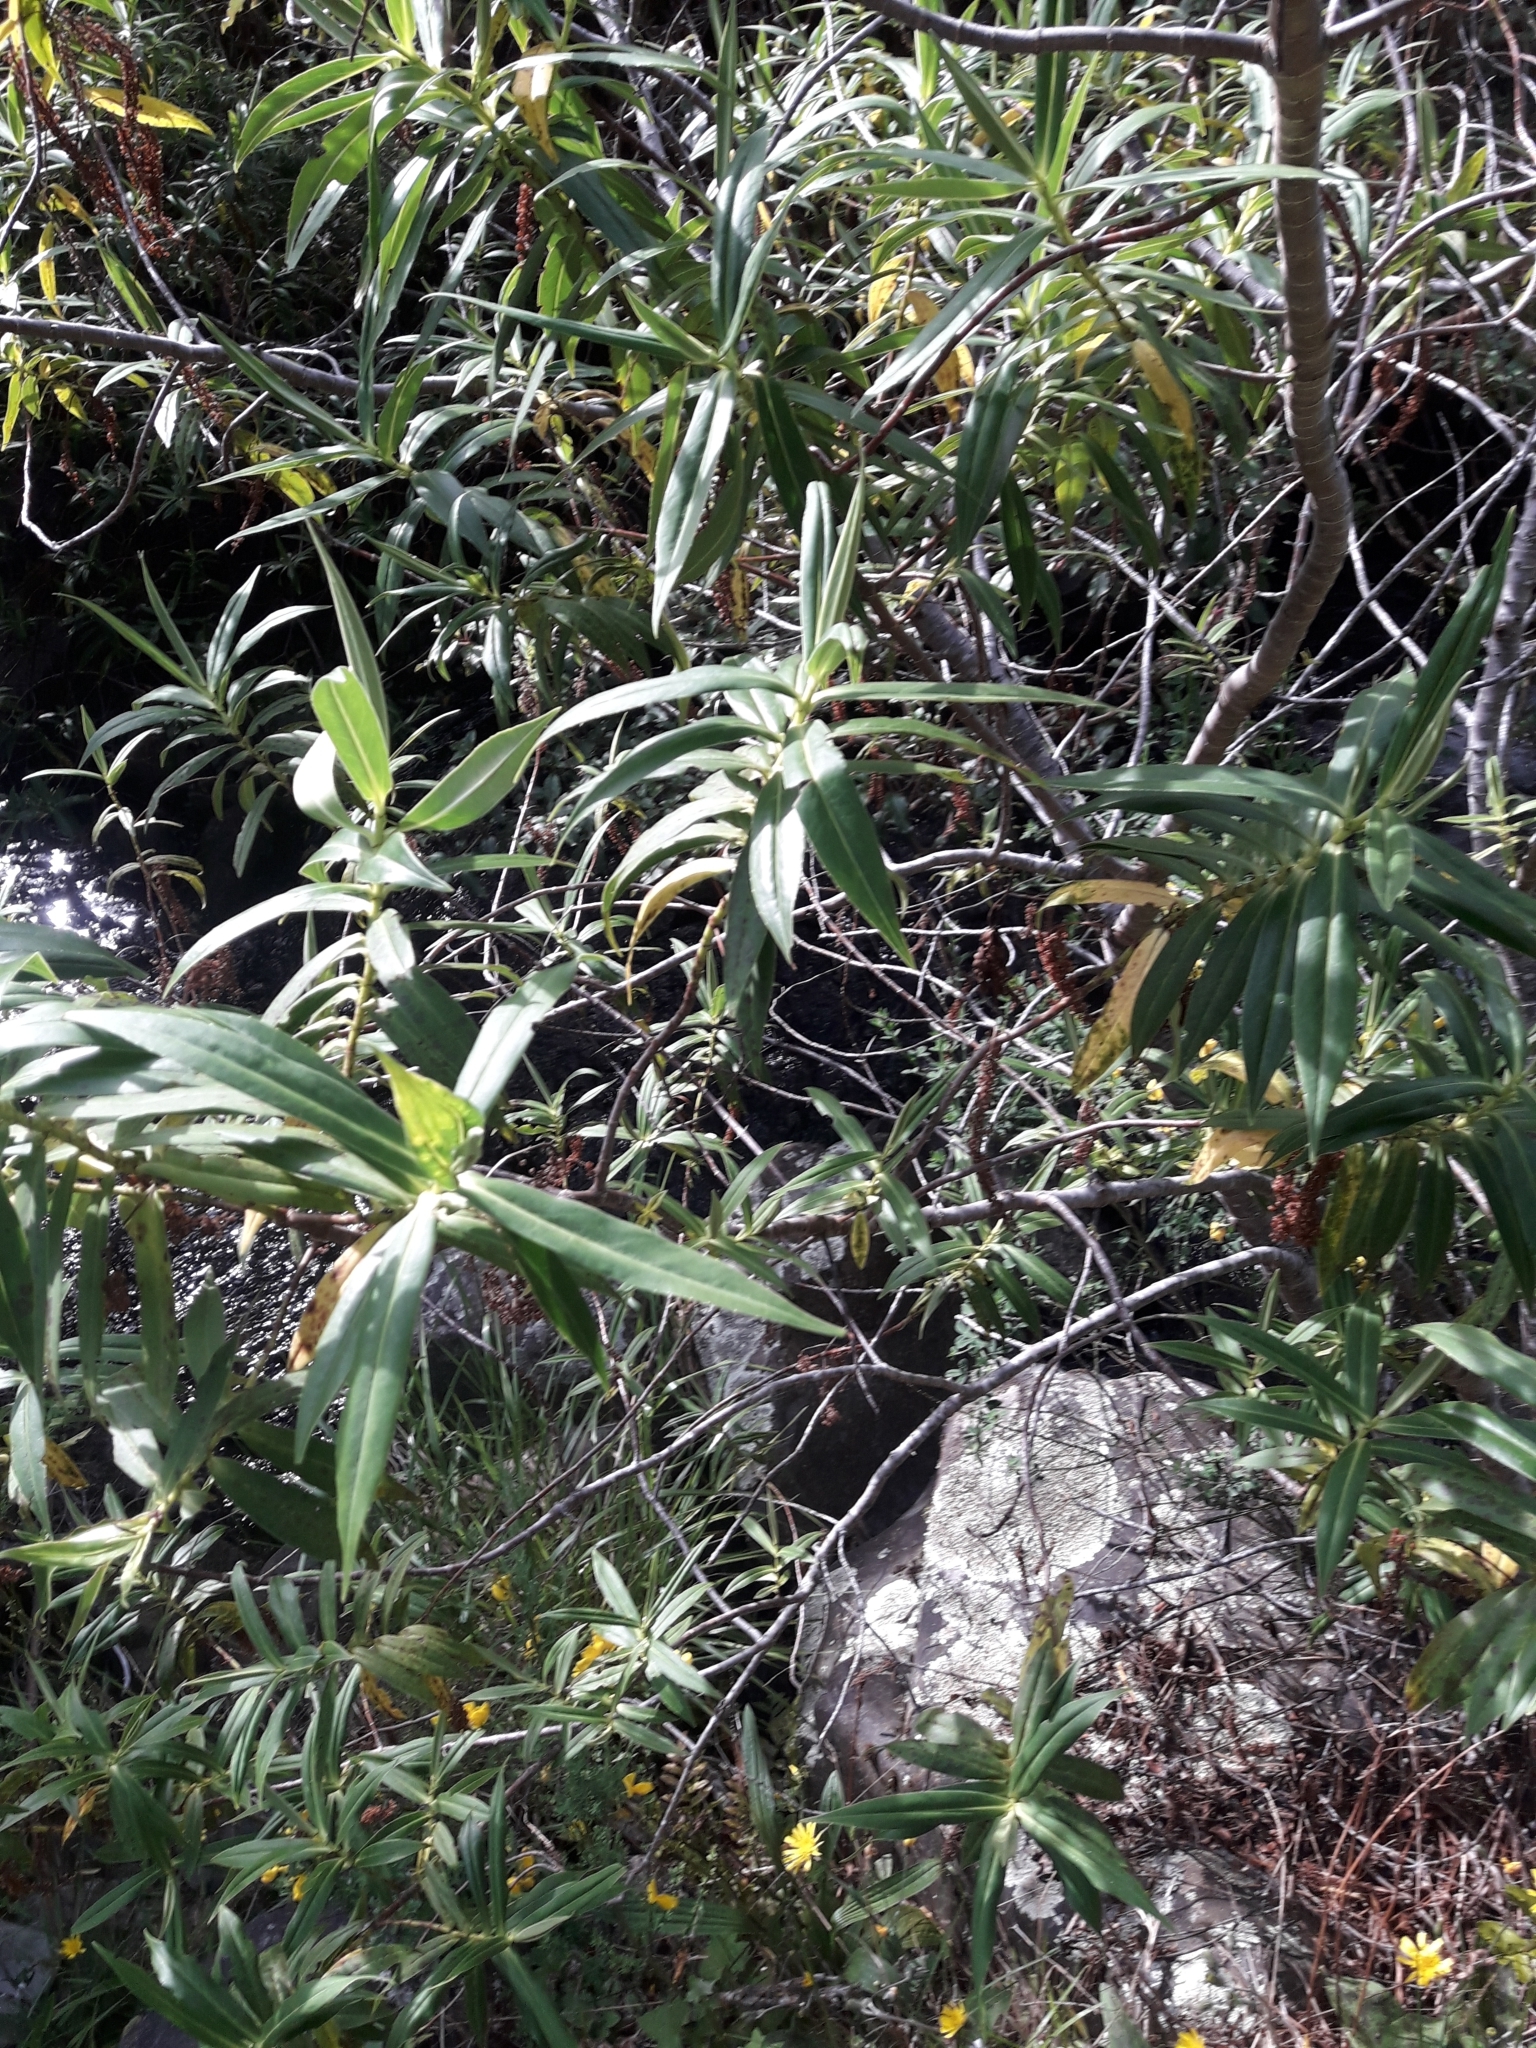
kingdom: Plantae
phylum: Tracheophyta
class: Magnoliopsida
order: Lamiales
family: Plantaginaceae
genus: Veronica
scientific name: Veronica salicifolia
